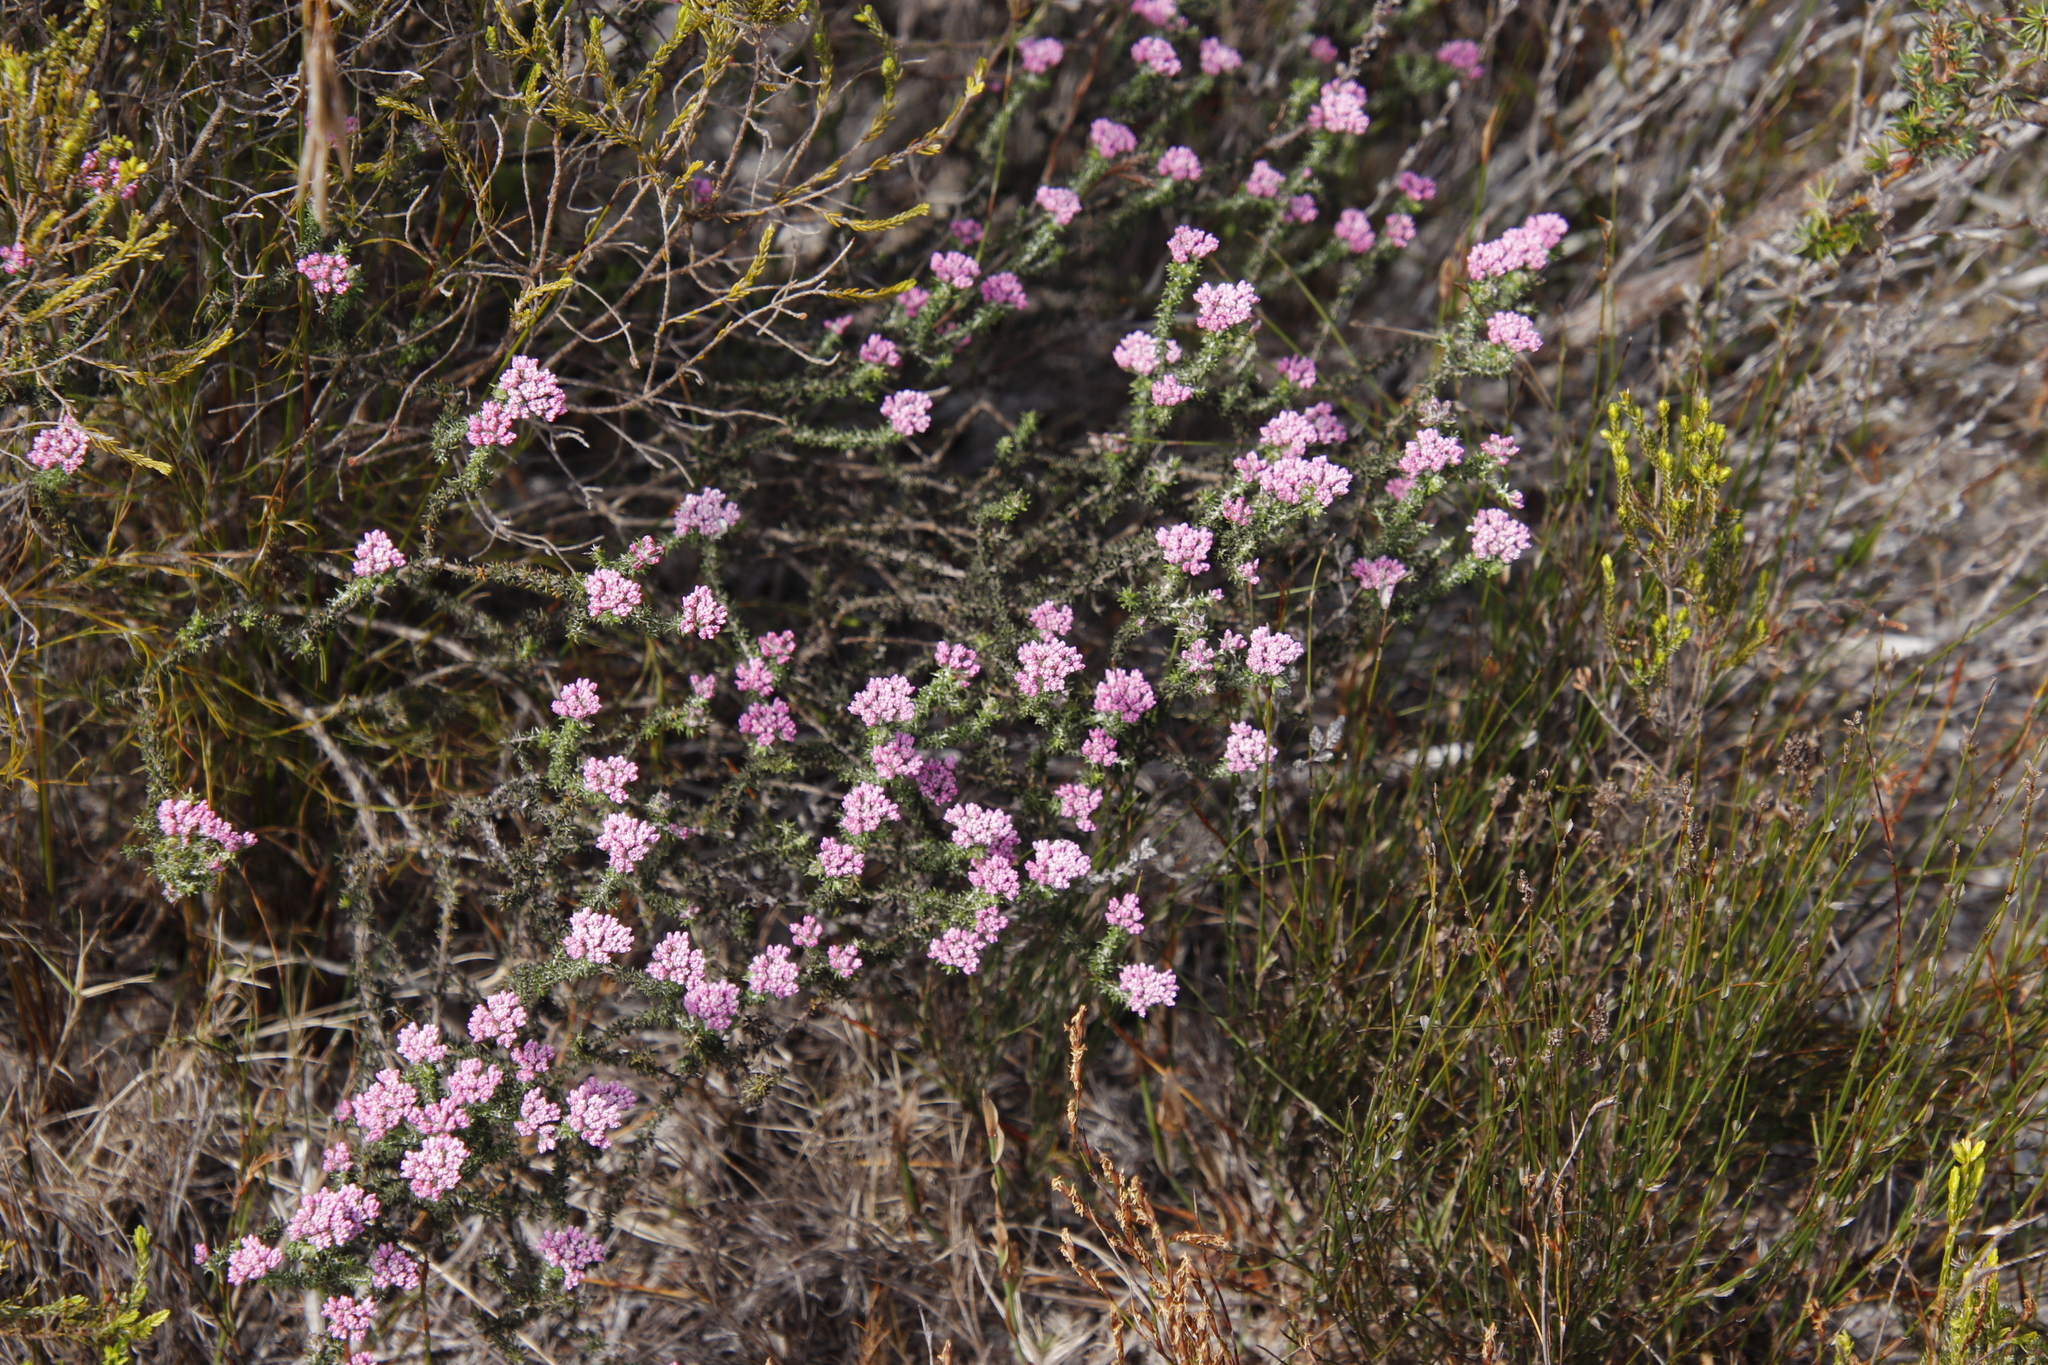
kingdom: Plantae
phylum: Tracheophyta
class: Magnoliopsida
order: Asterales
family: Asteraceae
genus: Metalasia
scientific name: Metalasia erubescens
